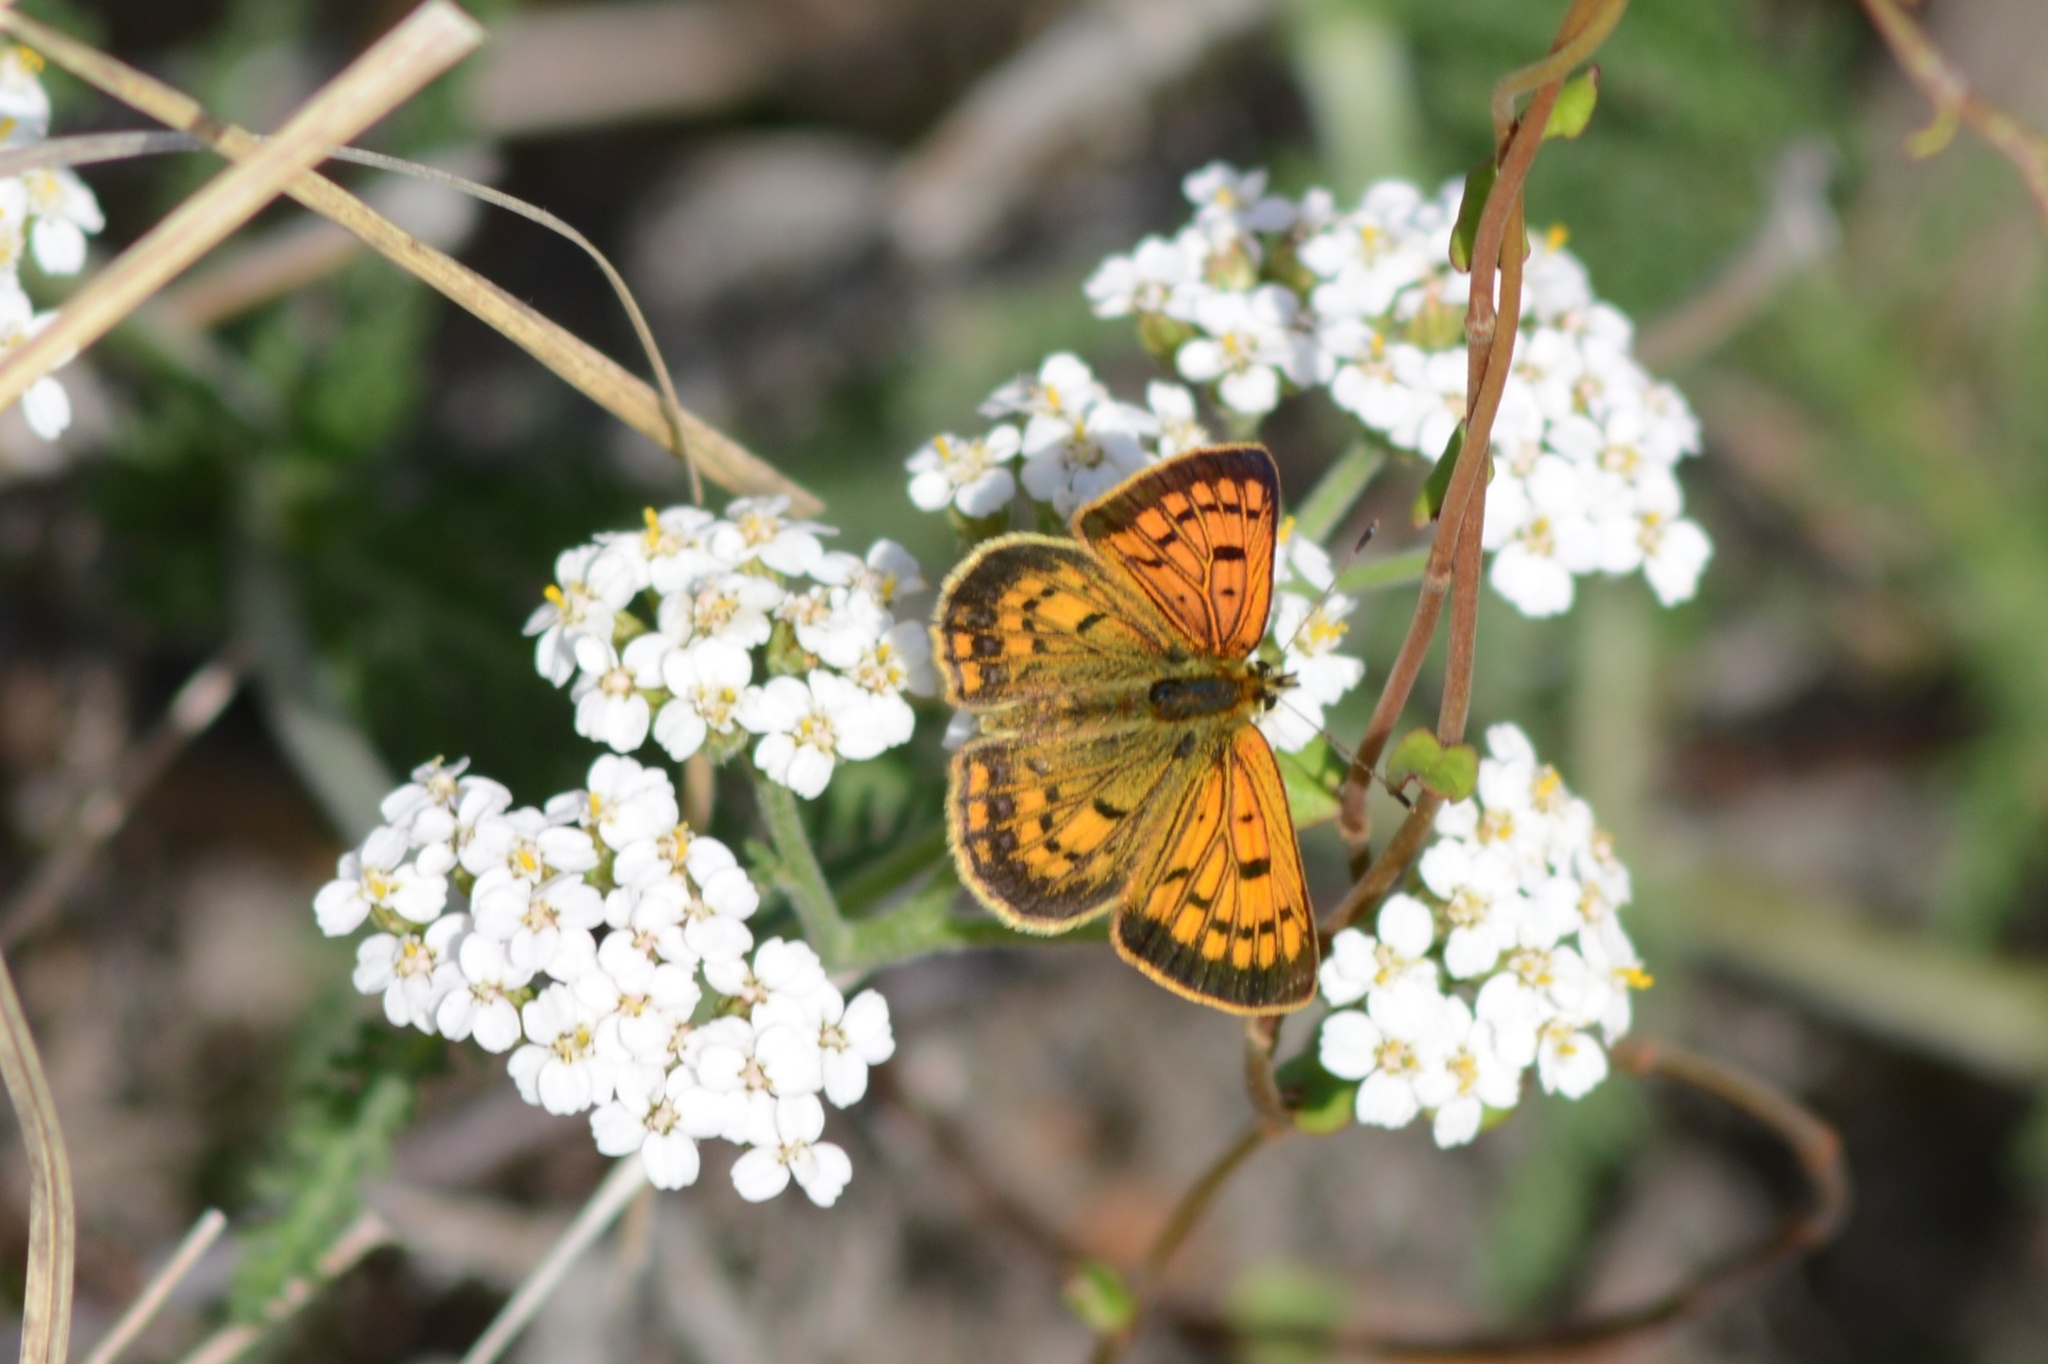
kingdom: Animalia
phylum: Arthropoda
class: Insecta
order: Lepidoptera
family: Lycaenidae
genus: Lycaena
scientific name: Lycaena
